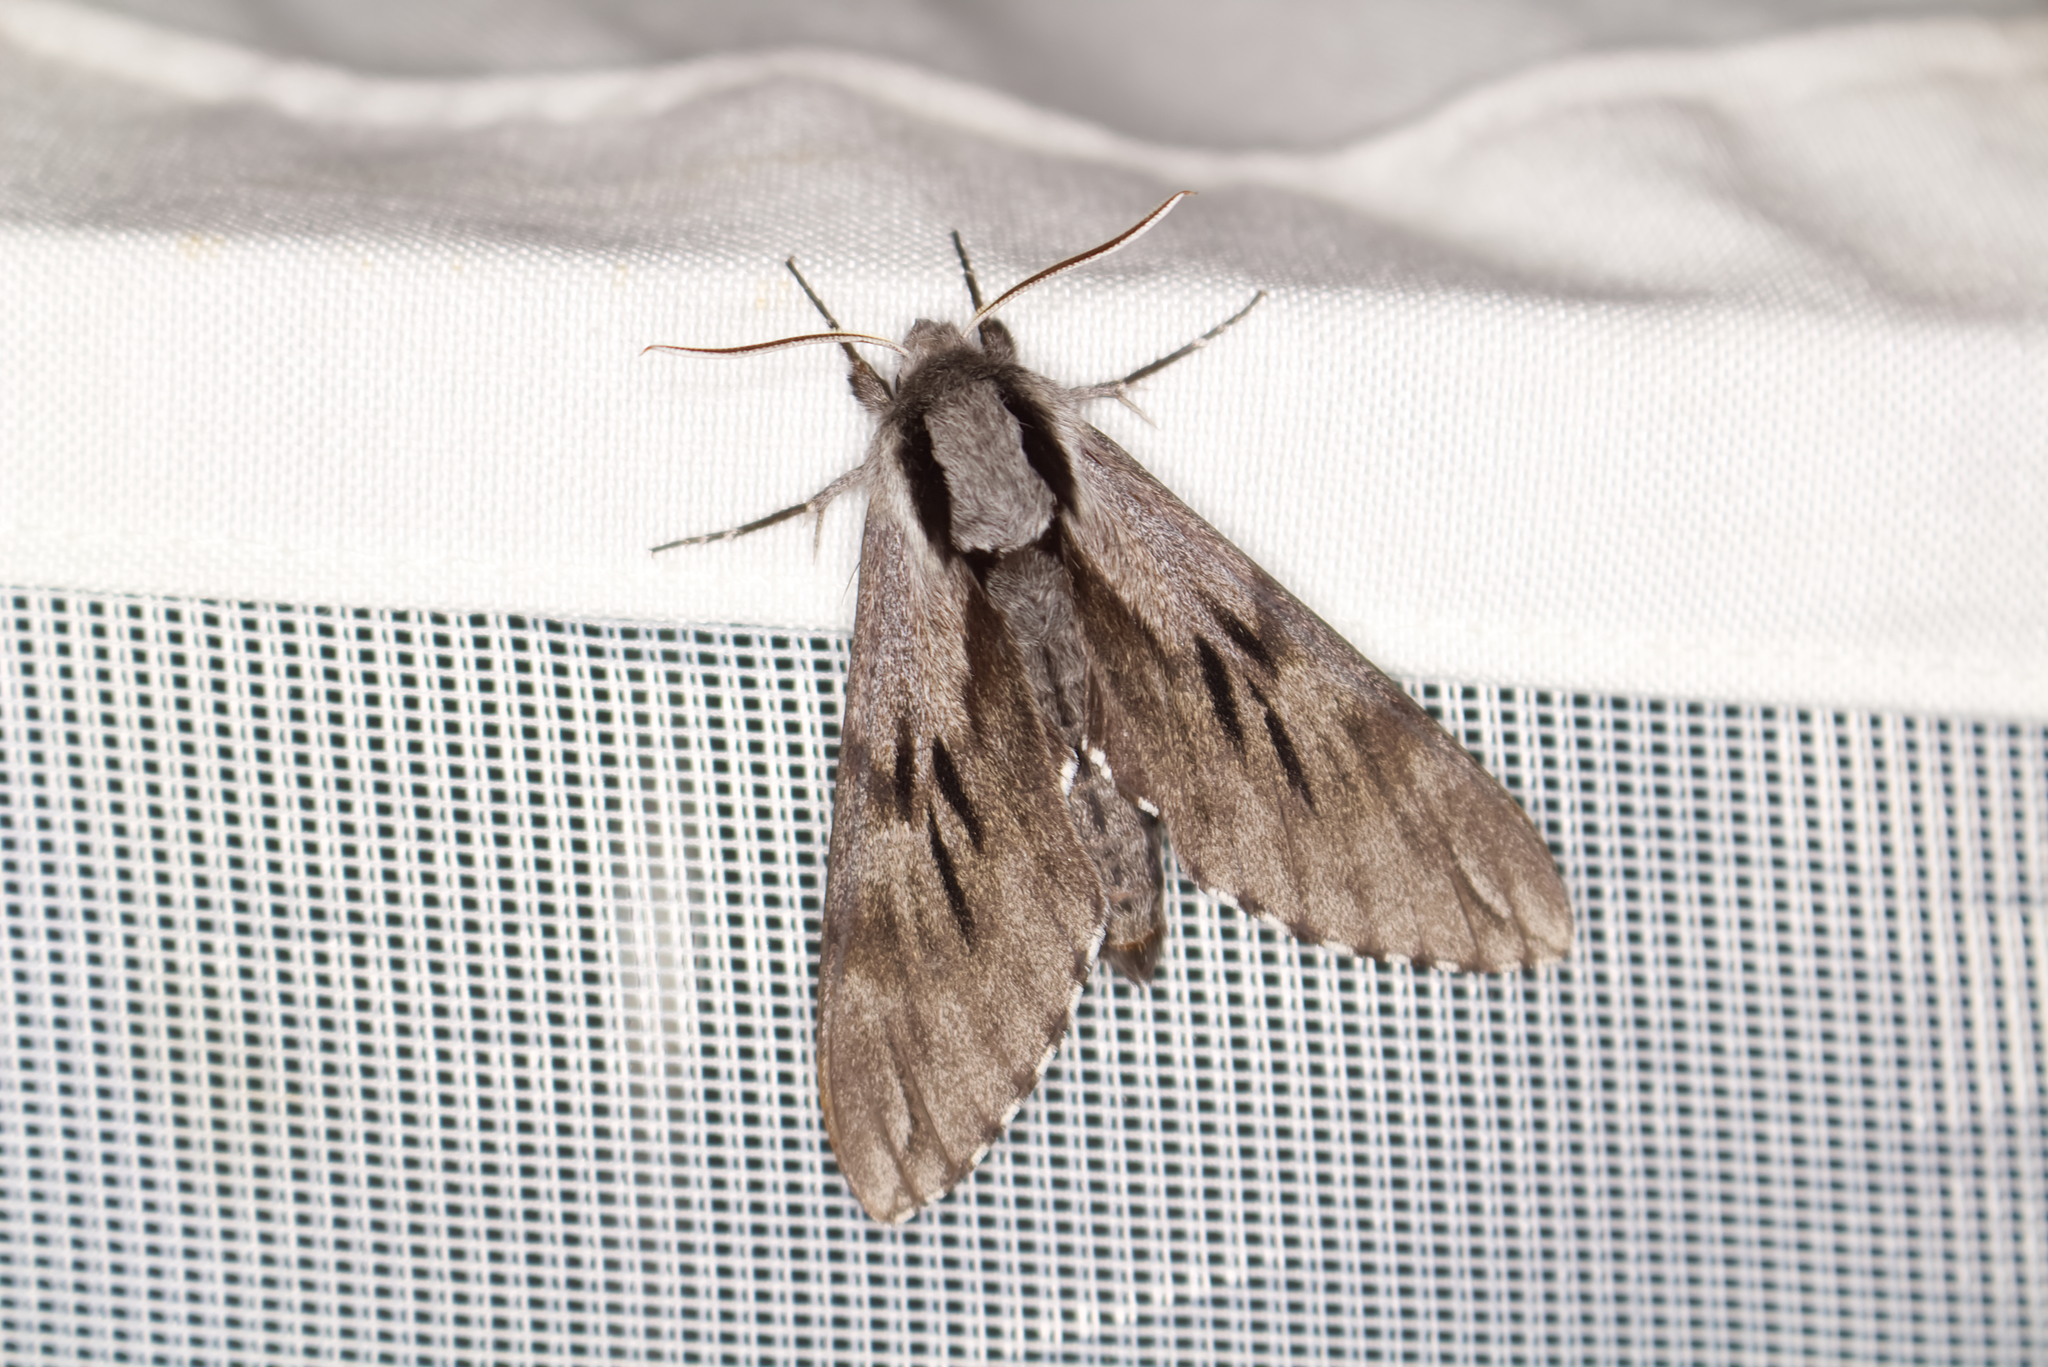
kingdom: Animalia
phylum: Arthropoda
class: Insecta
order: Lepidoptera
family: Sphingidae
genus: Sphinx
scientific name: Sphinx pinastri
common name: Pine hawk-moth
